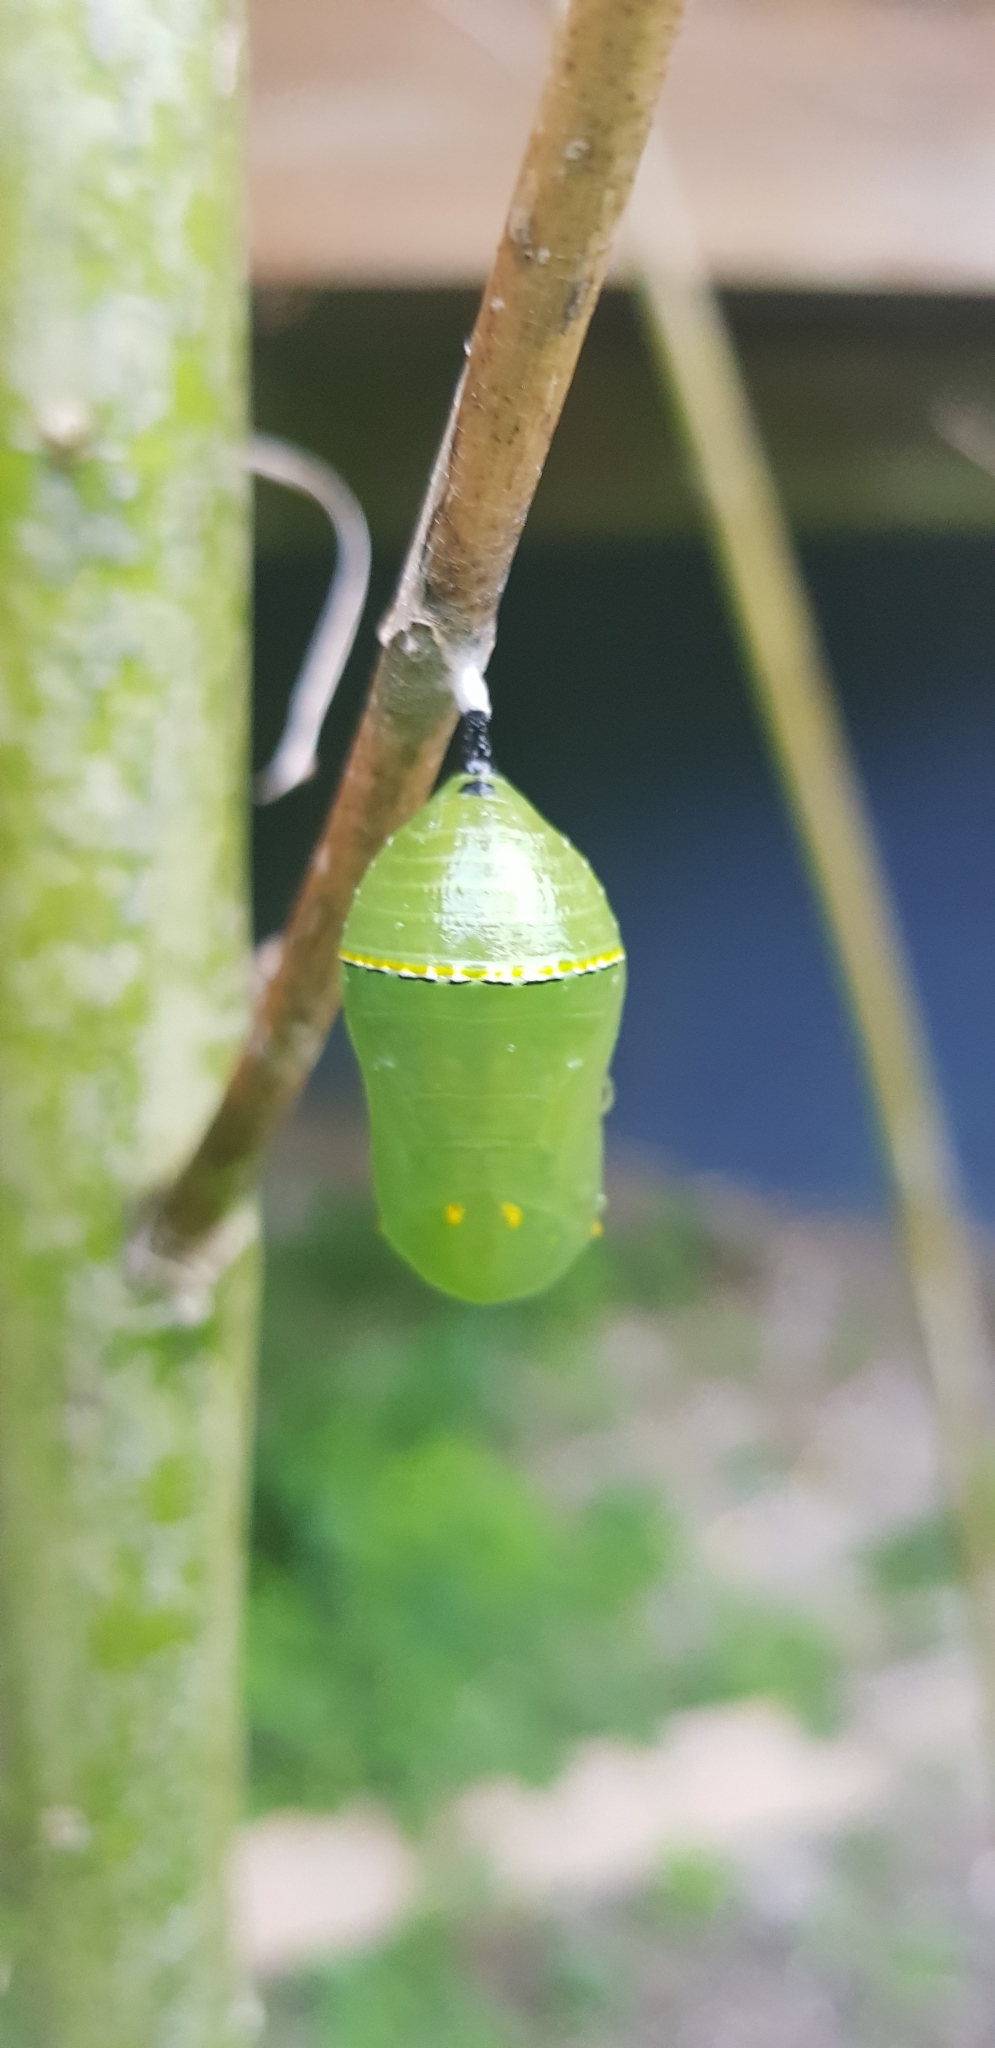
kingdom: Animalia
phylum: Arthropoda
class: Insecta
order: Lepidoptera
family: Nymphalidae
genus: Danaus
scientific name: Danaus plexippus
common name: Monarch
